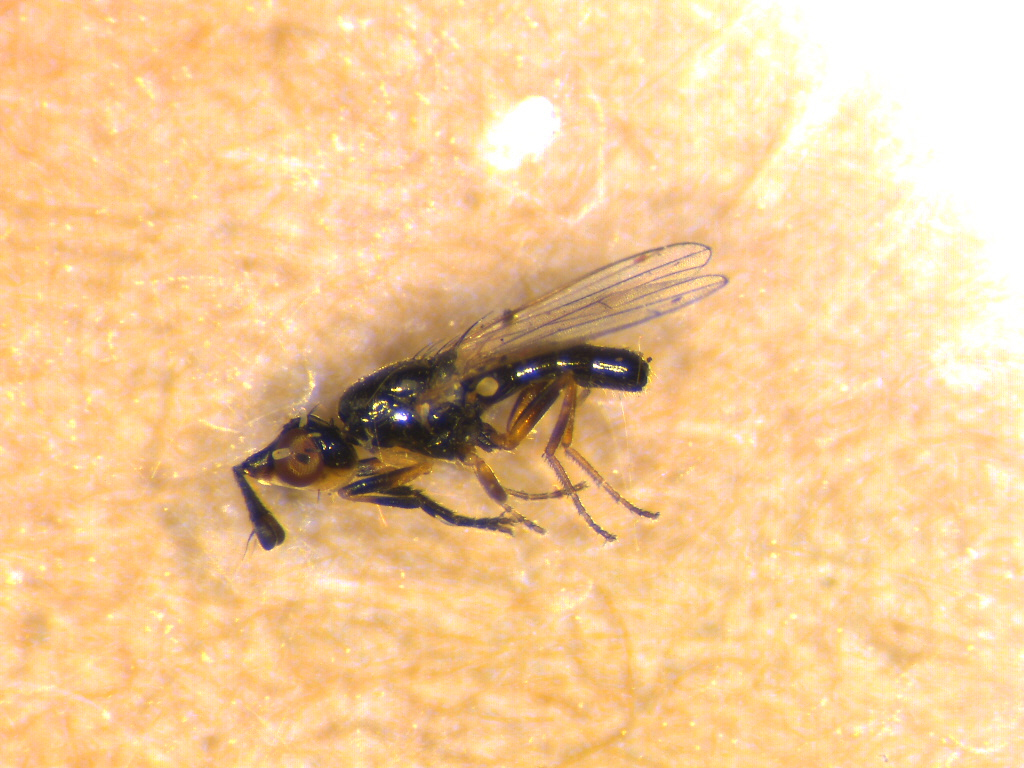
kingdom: Animalia
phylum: Arthropoda
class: Insecta
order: Diptera
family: Piophilidae
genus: Prochyliza
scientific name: Prochyliza xanthostoma
